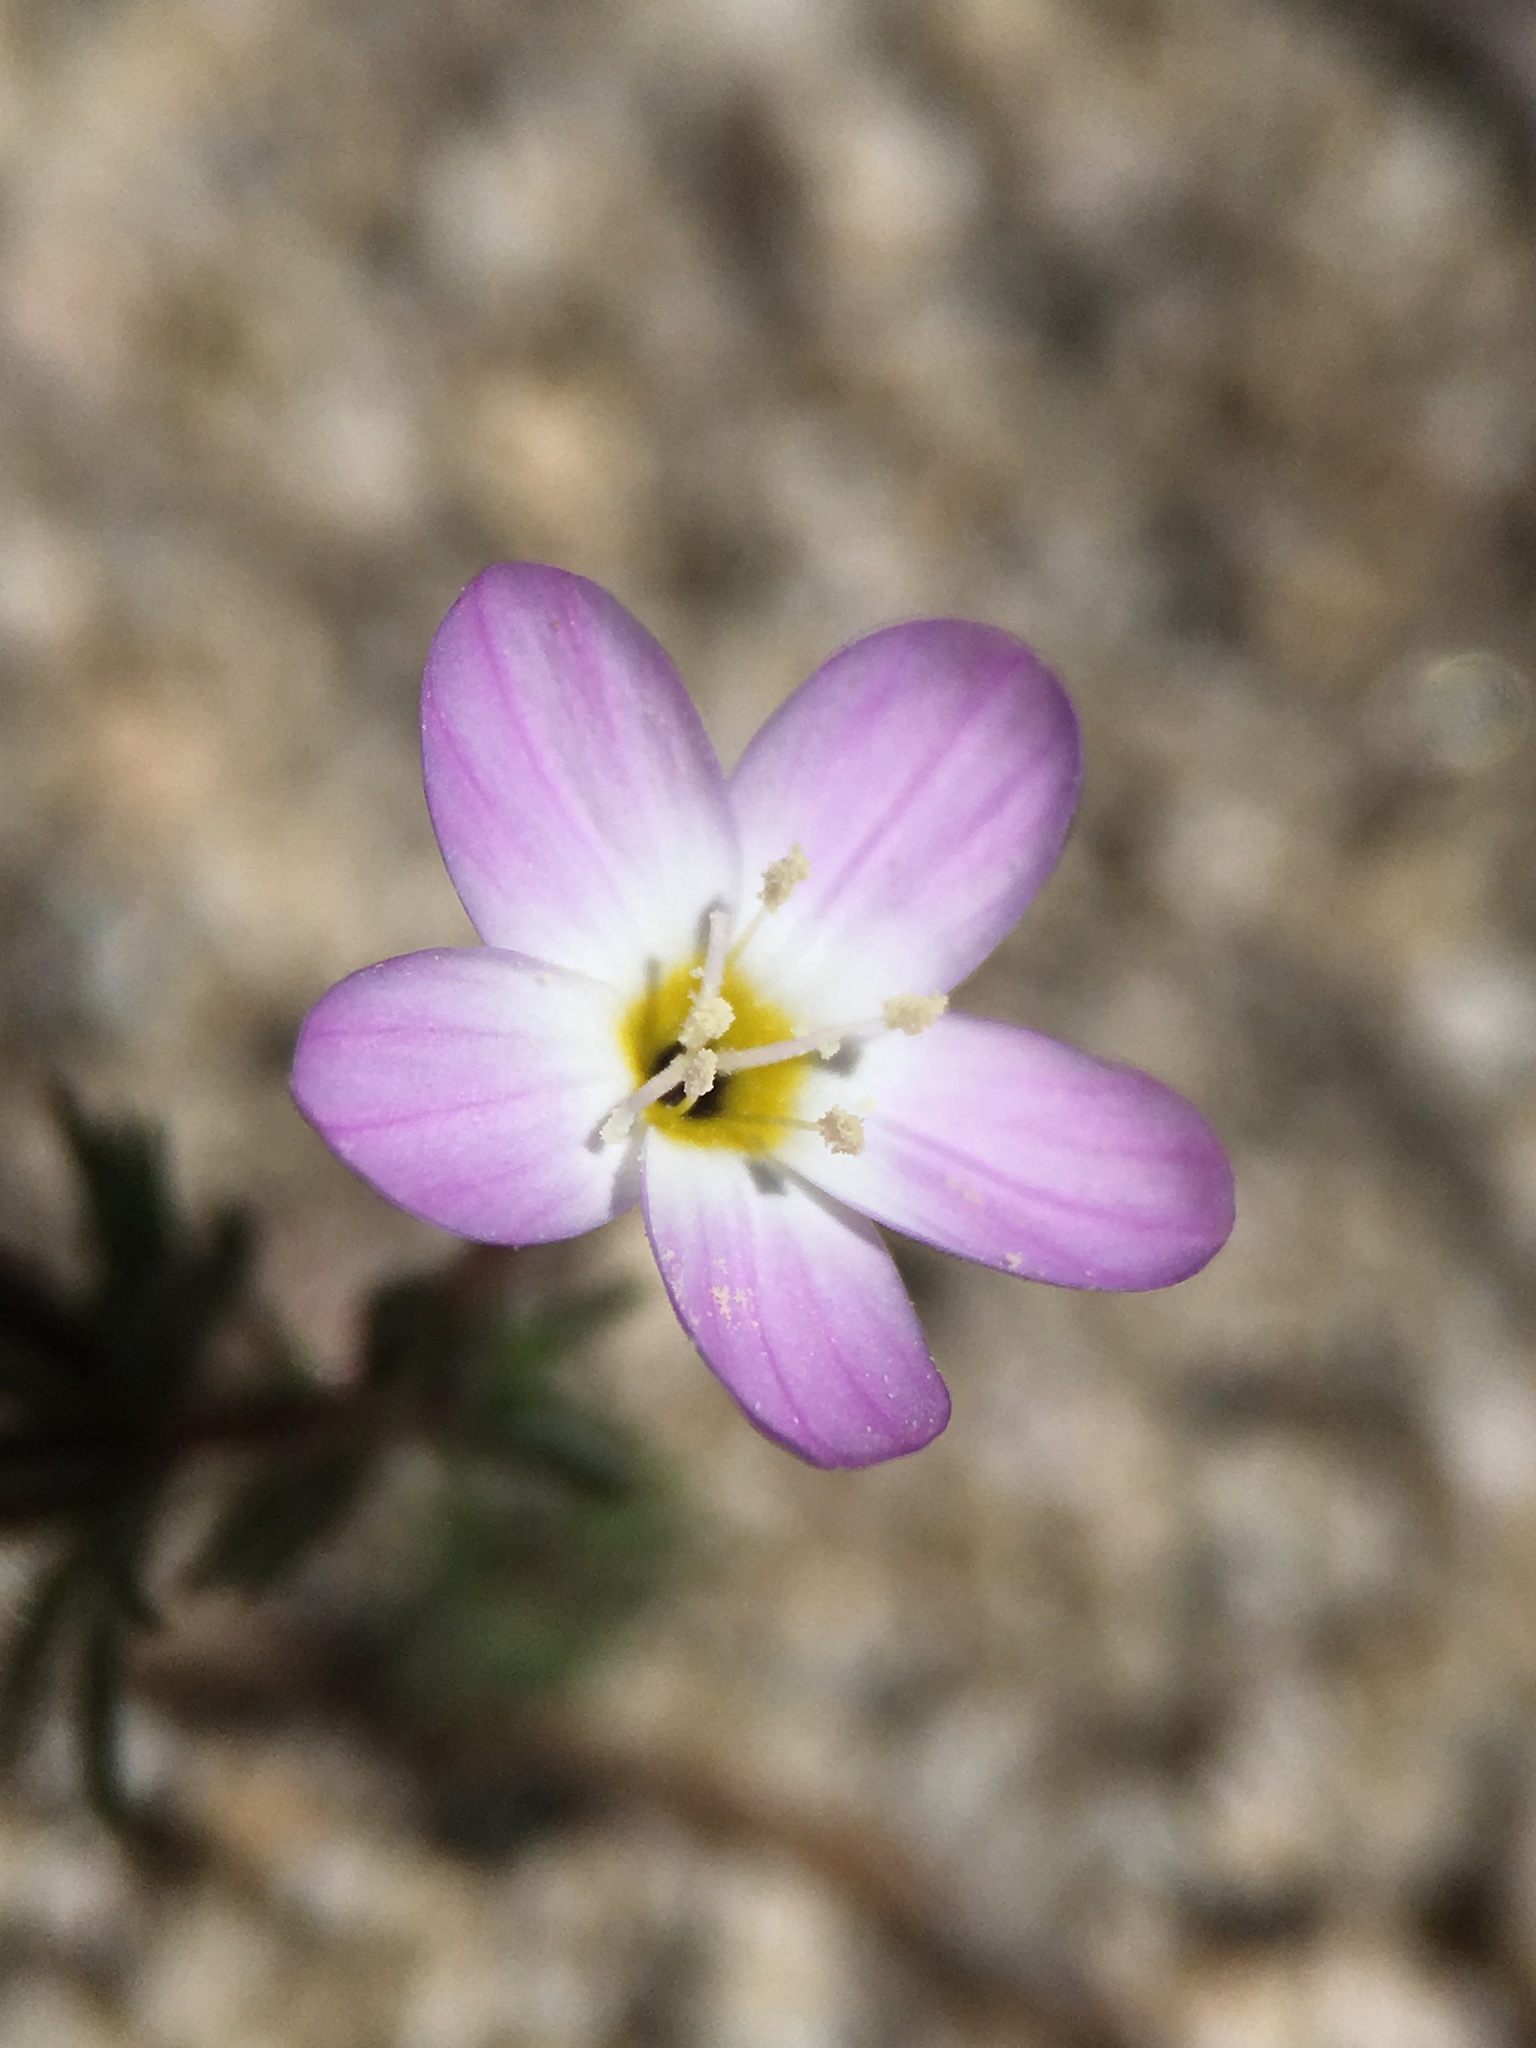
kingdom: Plantae
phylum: Tracheophyta
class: Magnoliopsida
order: Ericales
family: Polemoniaceae
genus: Leptosiphon
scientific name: Leptosiphon nudatus
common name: Tehachapi linanthus
